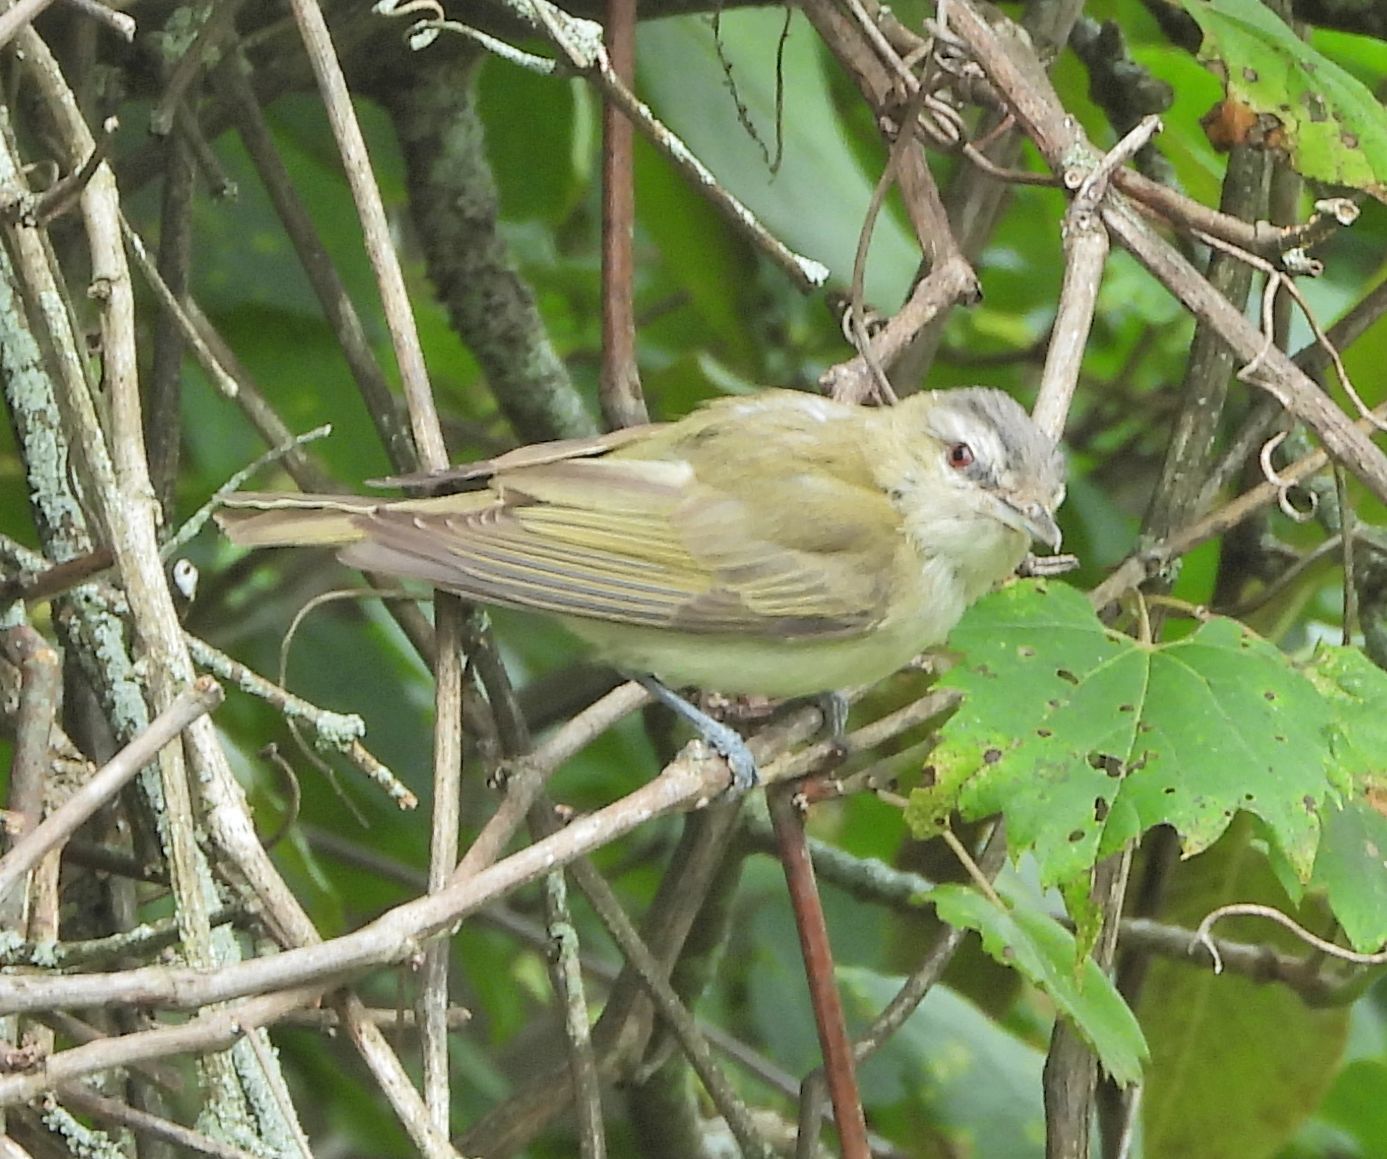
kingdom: Animalia
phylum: Chordata
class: Aves
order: Passeriformes
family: Vireonidae
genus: Vireo
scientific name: Vireo olivaceus
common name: Red-eyed vireo
